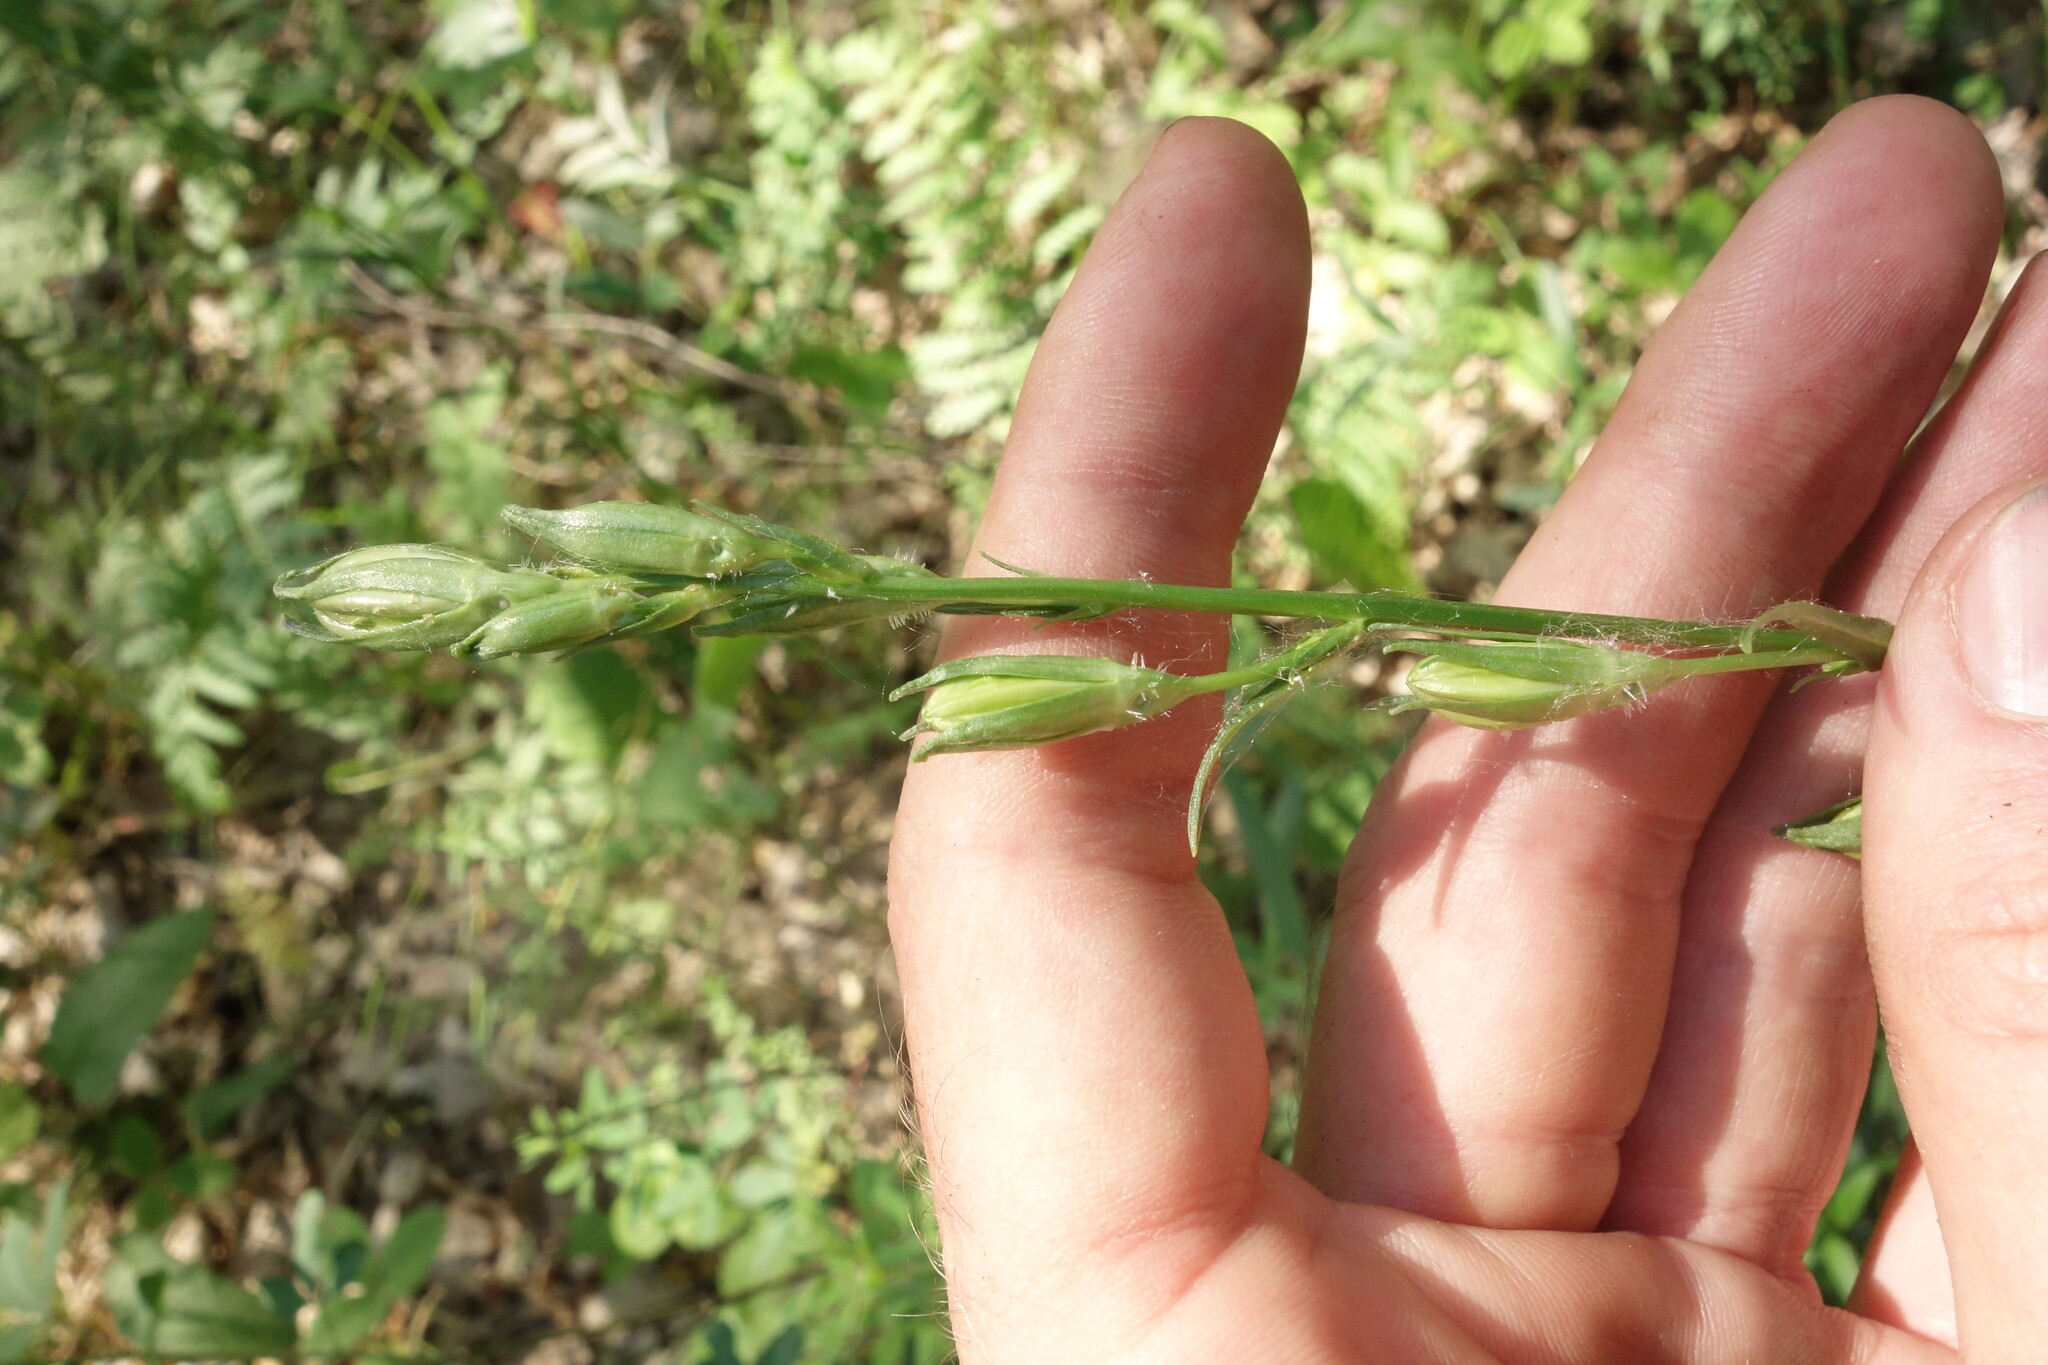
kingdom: Plantae
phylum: Tracheophyta
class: Magnoliopsida
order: Asterales
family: Campanulaceae
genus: Campanula
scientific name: Campanula persicifolia
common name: Peach-leaved bellflower
